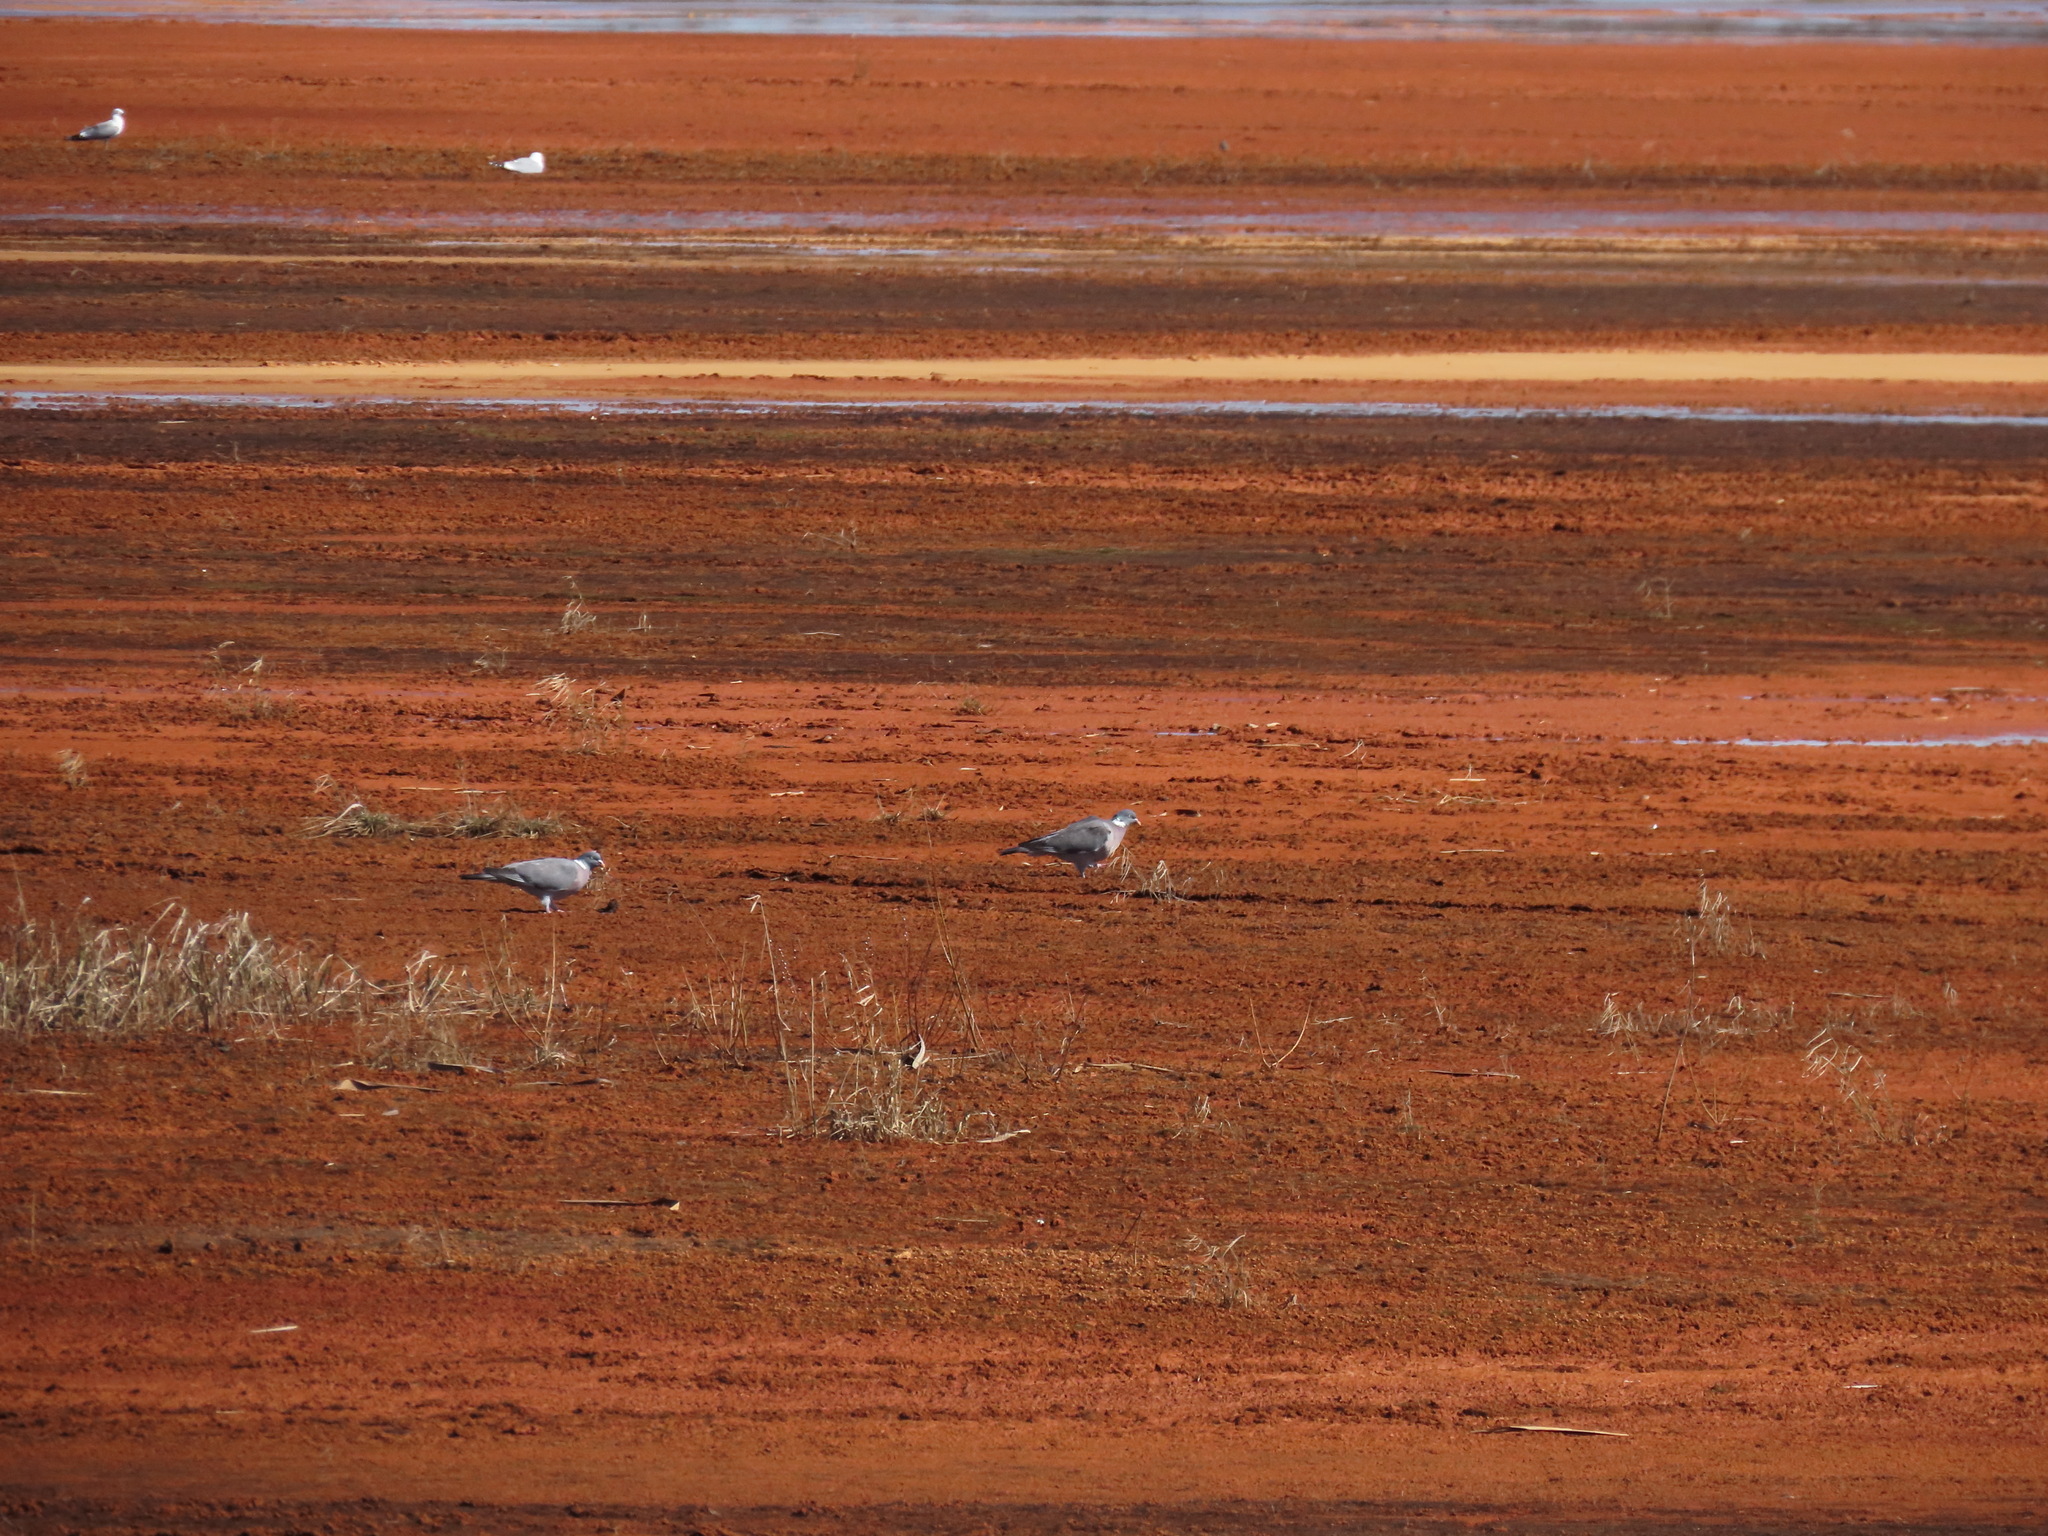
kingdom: Animalia
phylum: Chordata
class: Aves
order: Columbiformes
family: Columbidae
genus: Columba
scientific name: Columba palumbus
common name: Common wood pigeon
